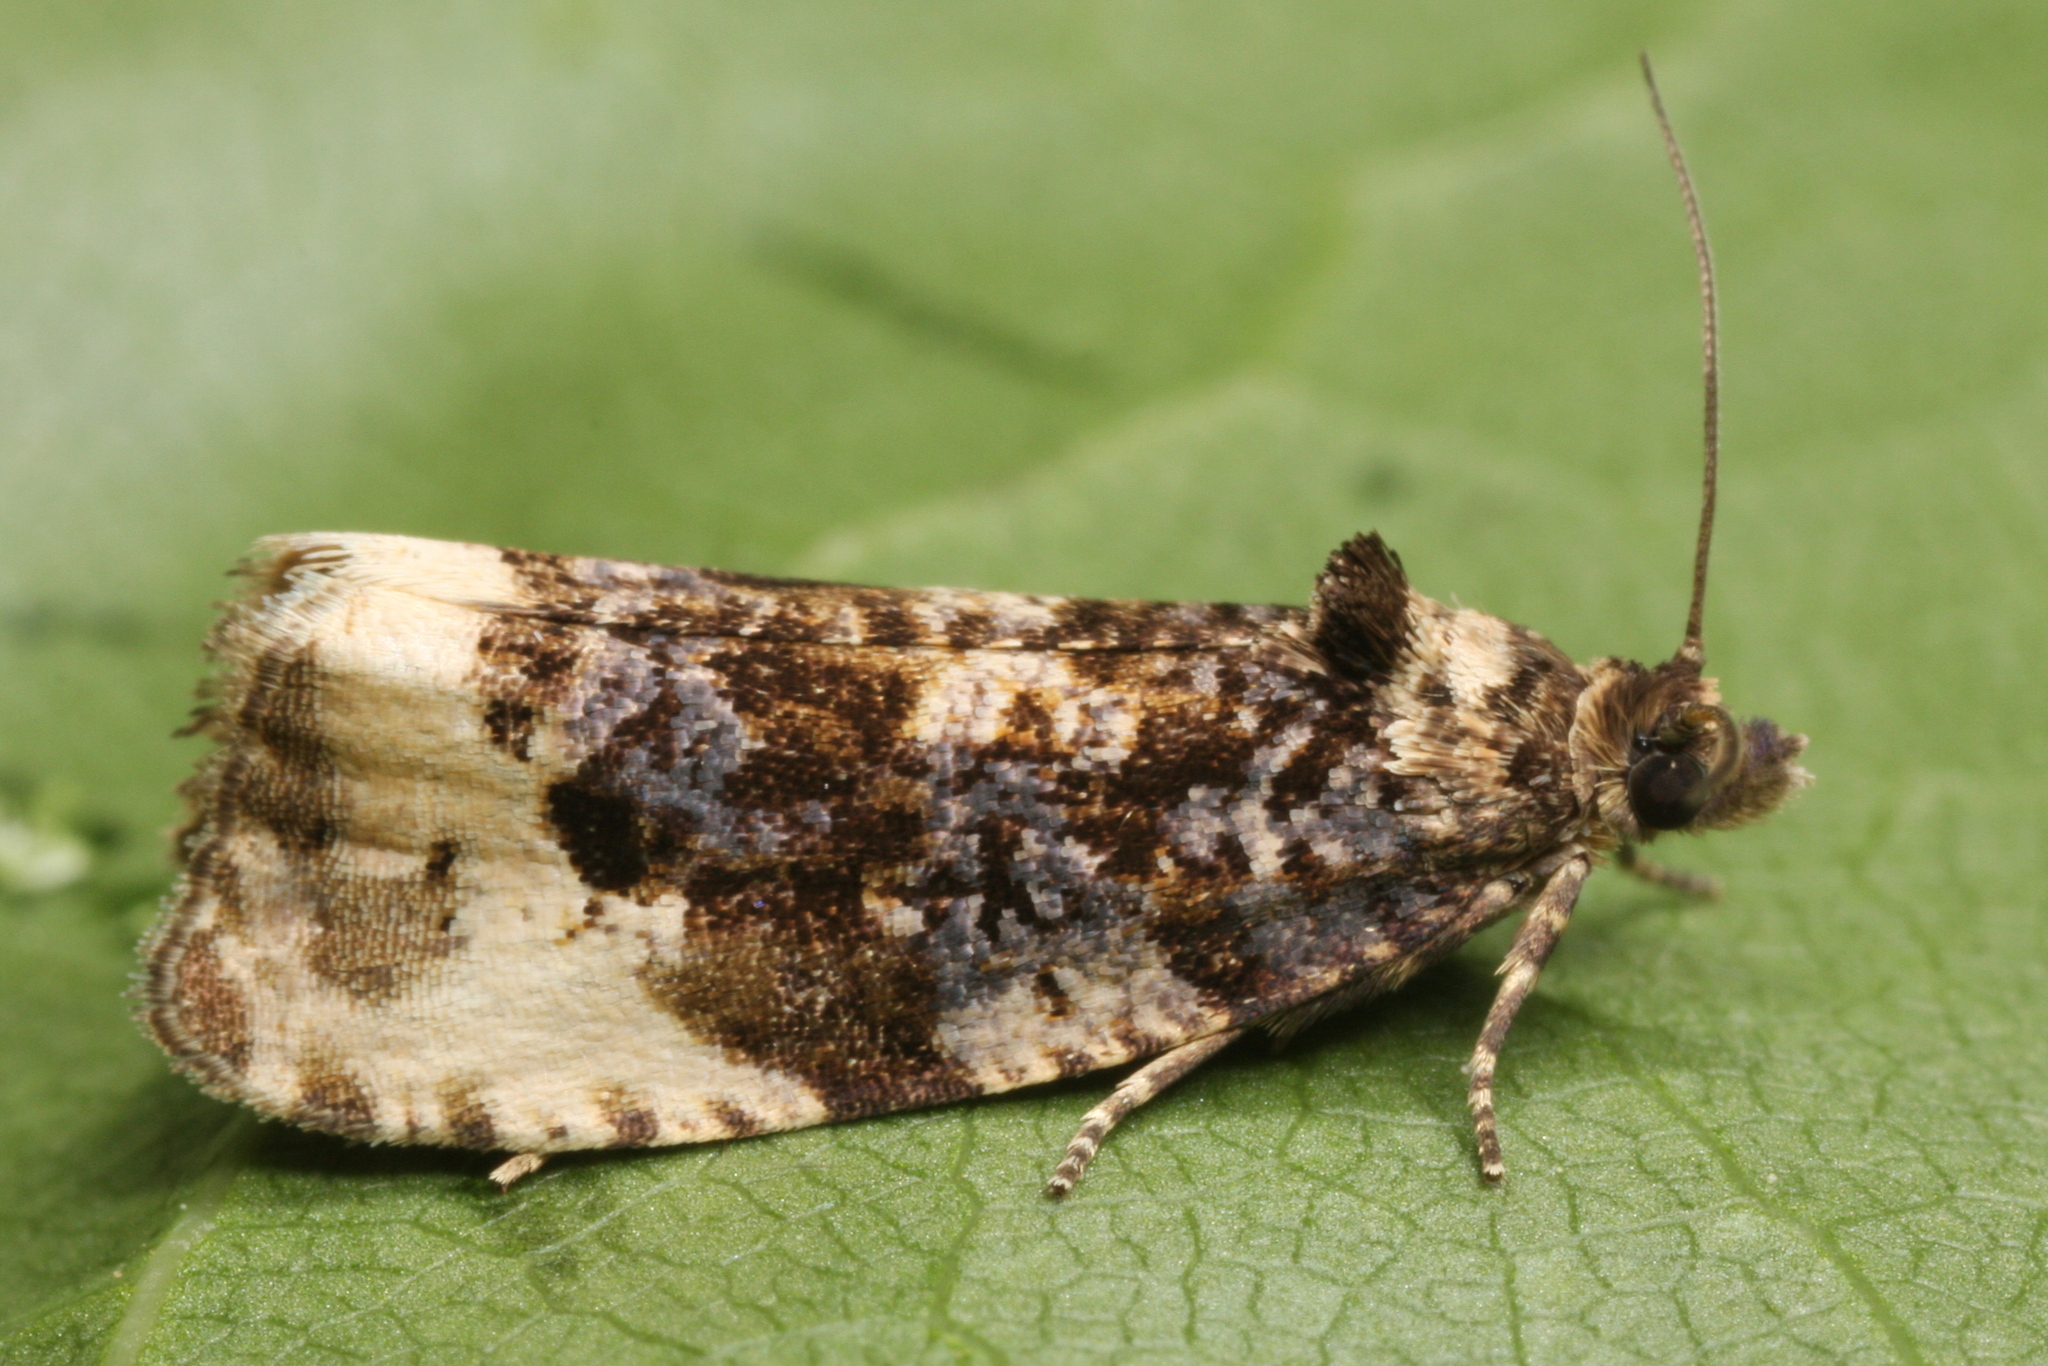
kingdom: Animalia
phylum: Arthropoda
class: Insecta
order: Lepidoptera
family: Tortricidae
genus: Hedya
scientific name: Hedya ochroleucana
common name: Buff-tipped marble
